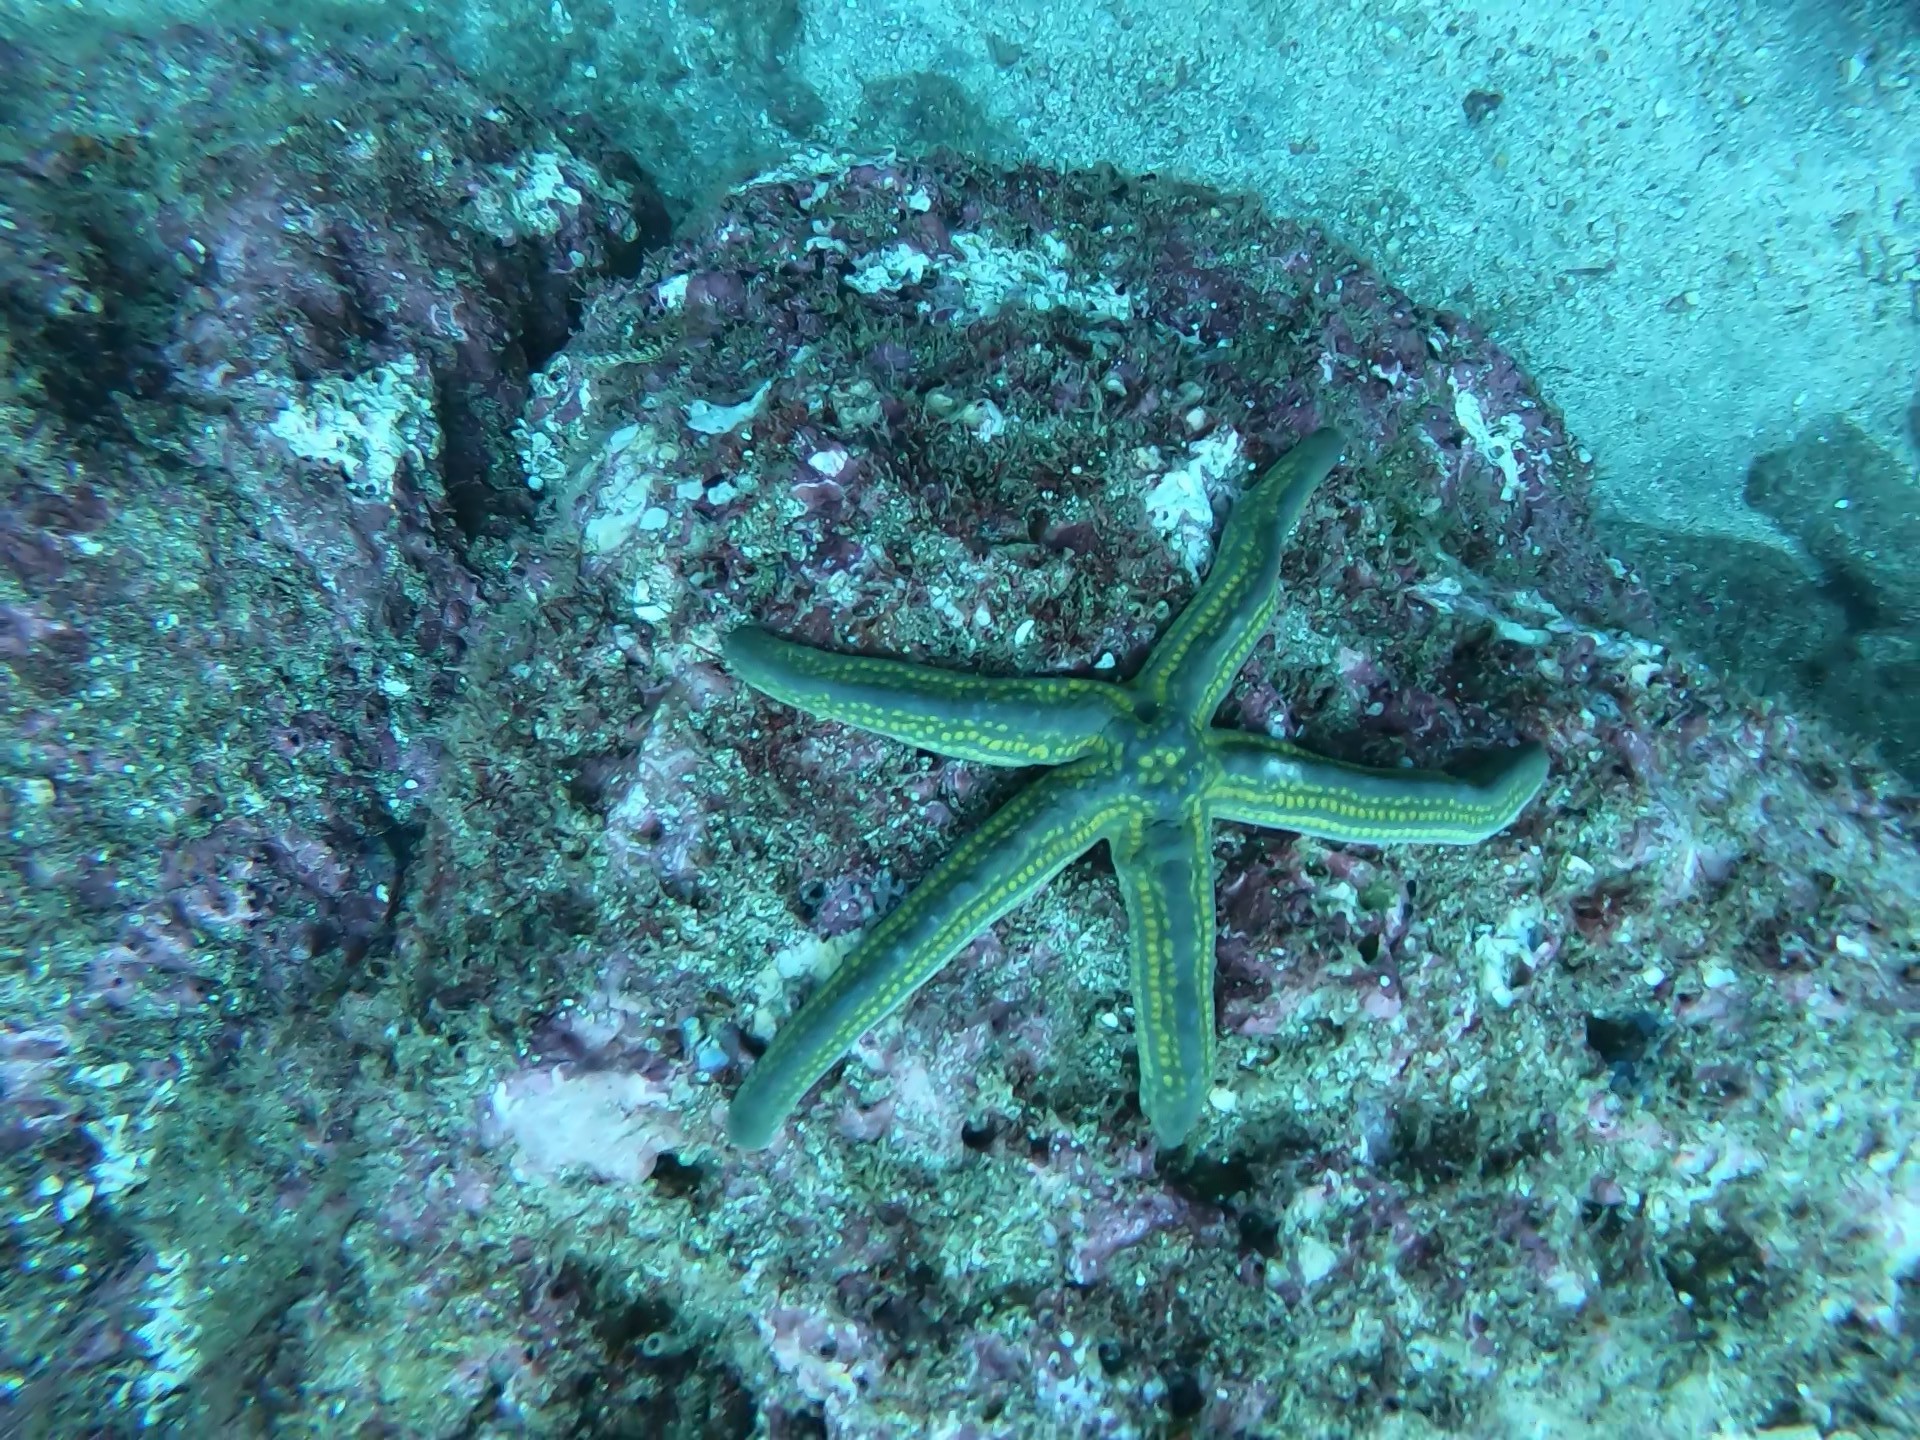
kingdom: Animalia
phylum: Echinodermata
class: Asteroidea
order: Valvatida
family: Ophidiasteridae
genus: Pharia
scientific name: Pharia pyramidata
